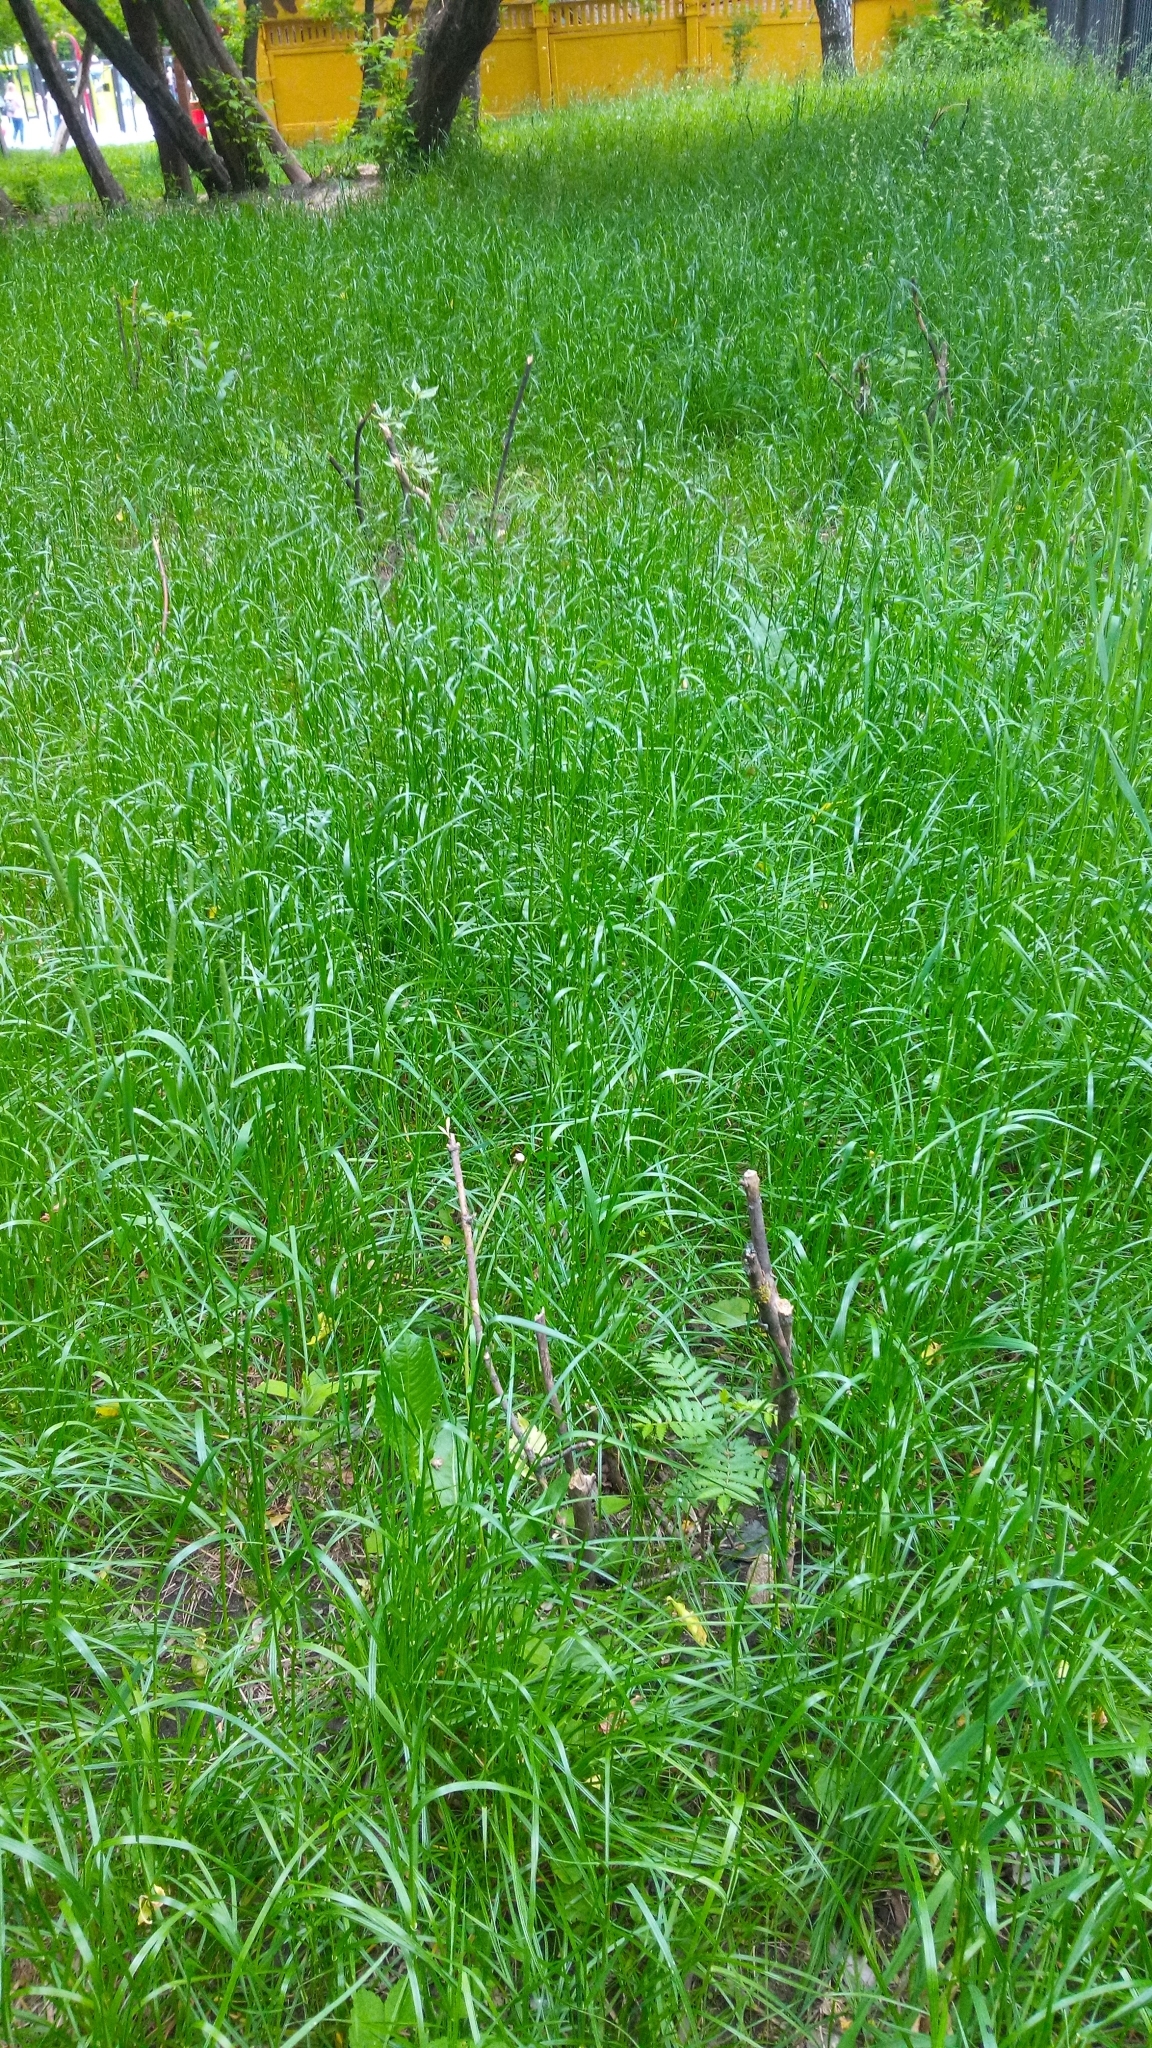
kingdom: Plantae
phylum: Tracheophyta
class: Magnoliopsida
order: Rosales
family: Rosaceae
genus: Sorbus
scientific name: Sorbus aucuparia
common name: Rowan
